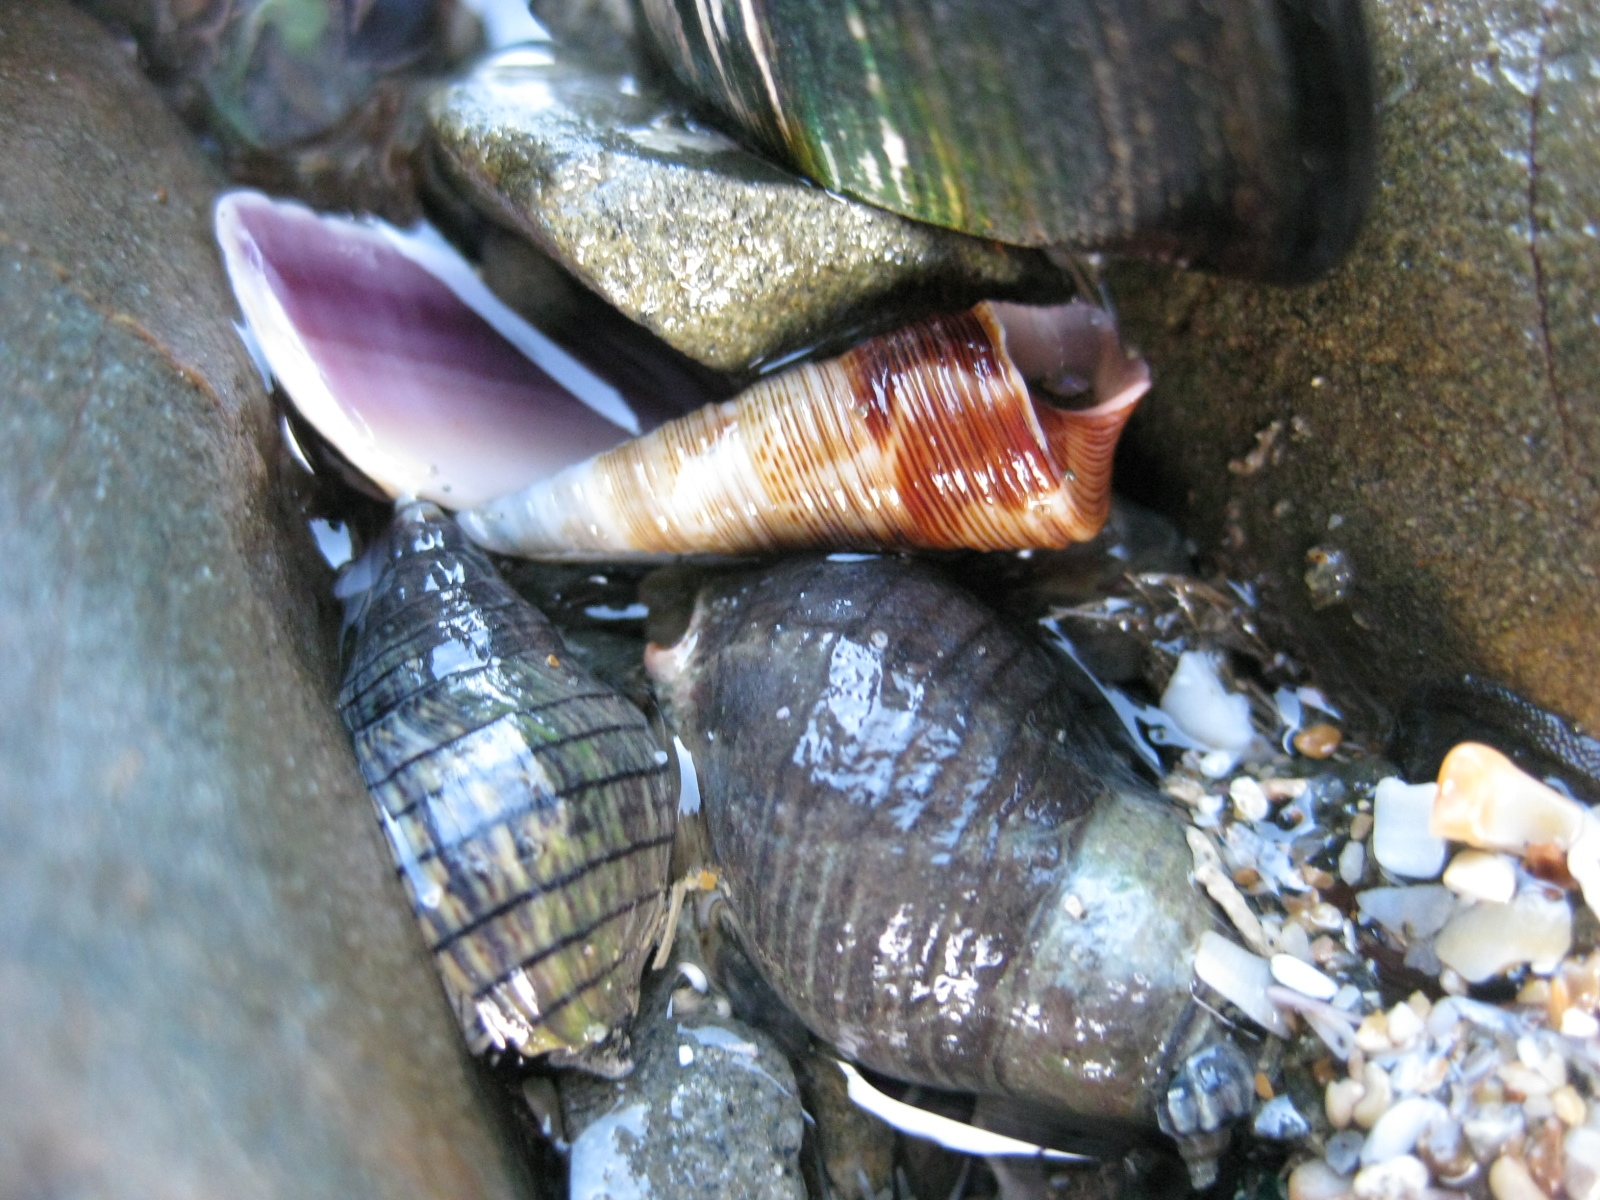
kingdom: Animalia
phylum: Mollusca
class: Gastropoda
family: Turritellidae
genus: Maoricolpus
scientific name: Maoricolpus roseus
